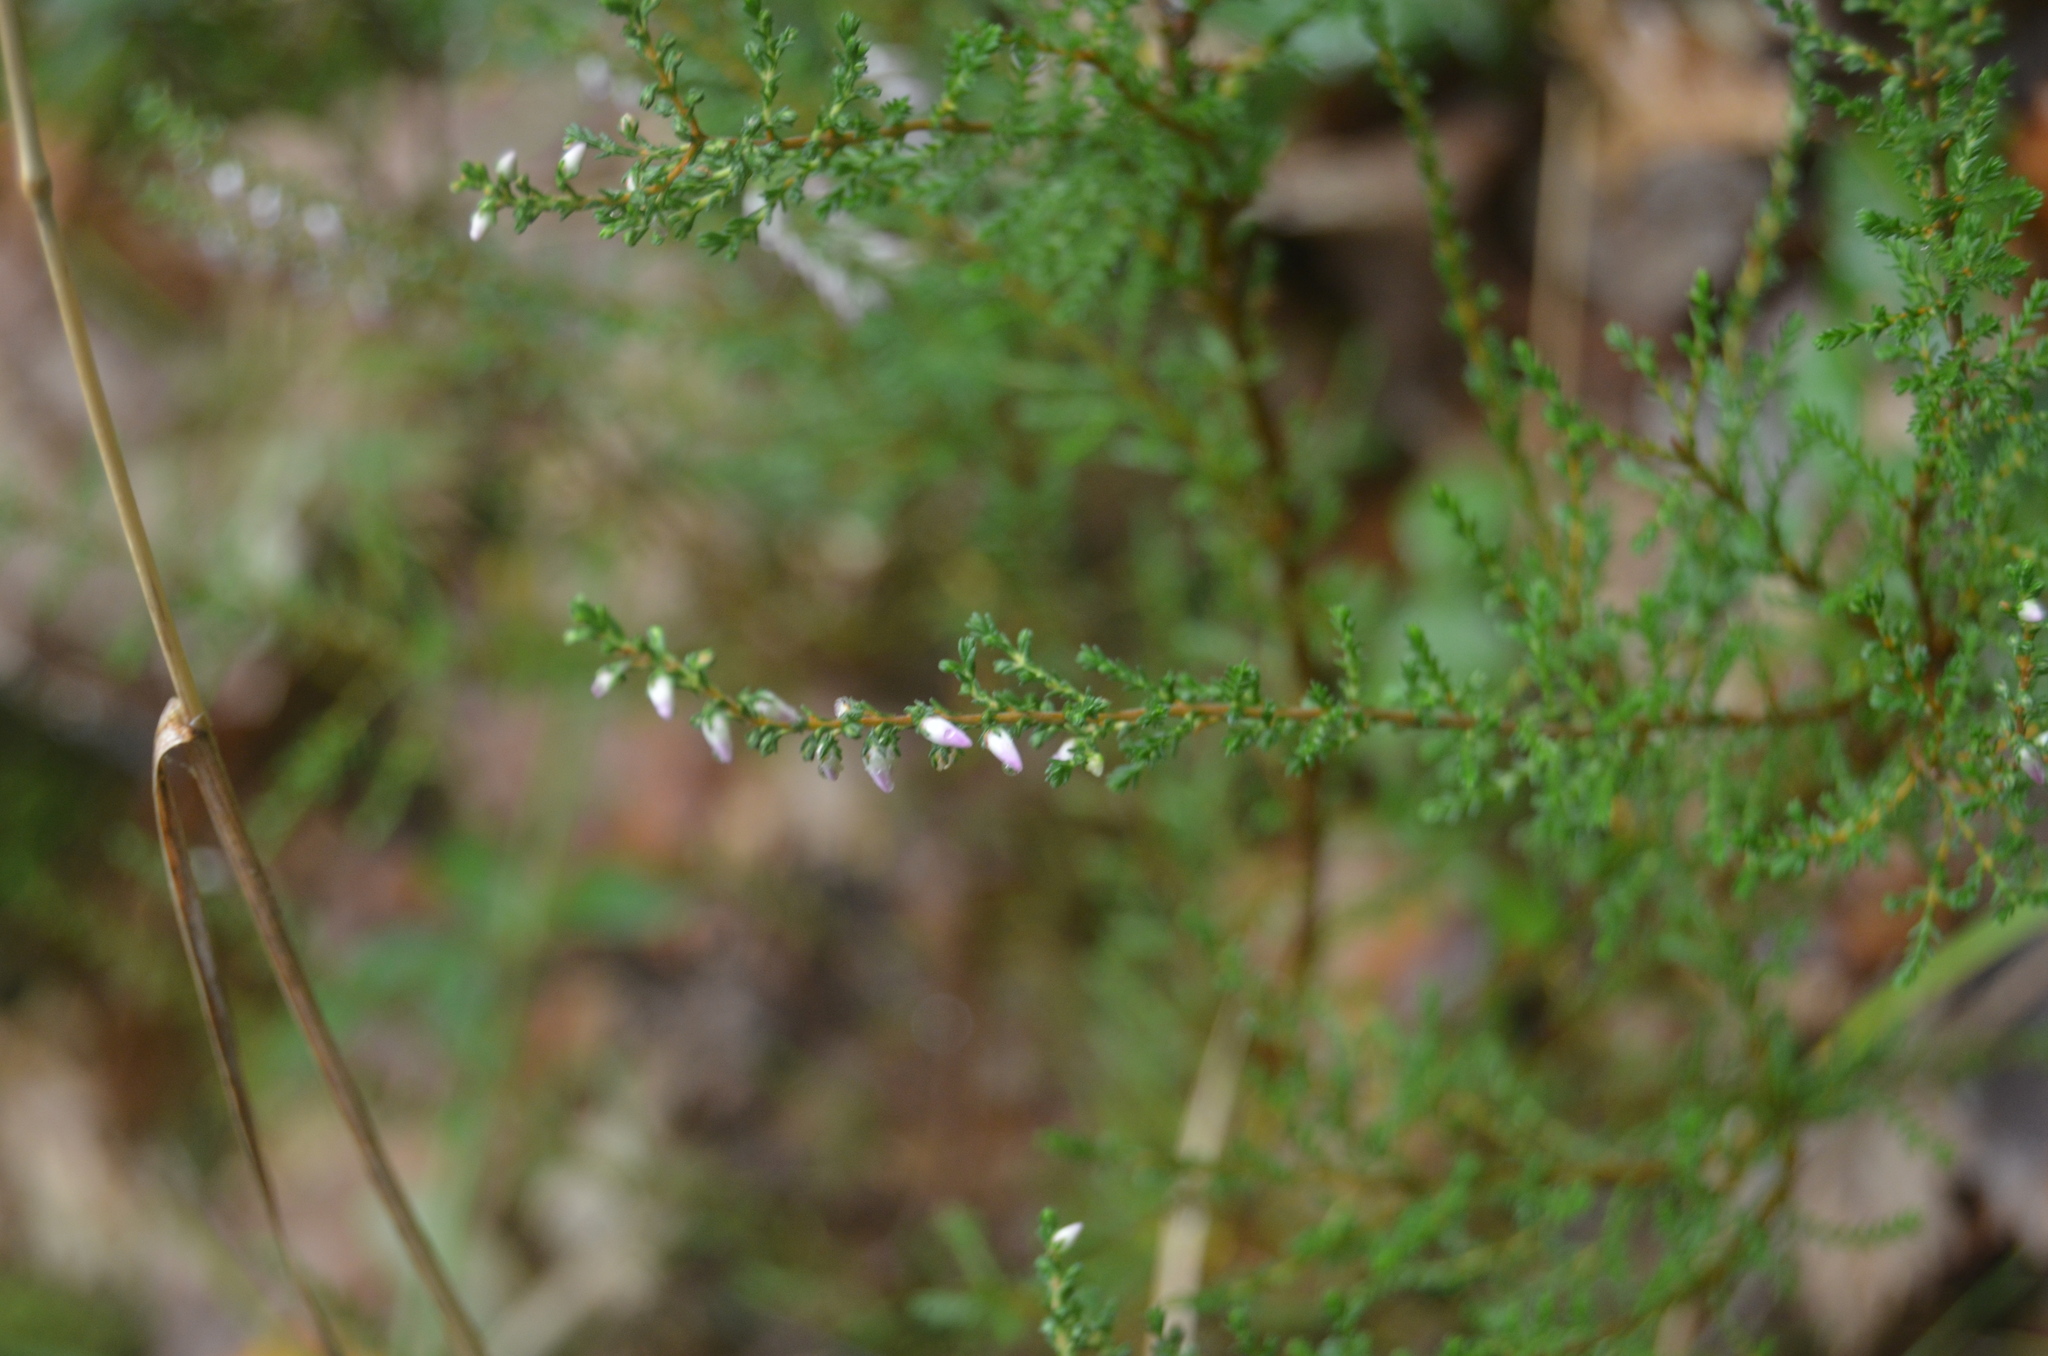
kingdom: Plantae
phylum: Tracheophyta
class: Magnoliopsida
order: Ericales
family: Ericaceae
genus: Calluna
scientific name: Calluna vulgaris
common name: Heather
